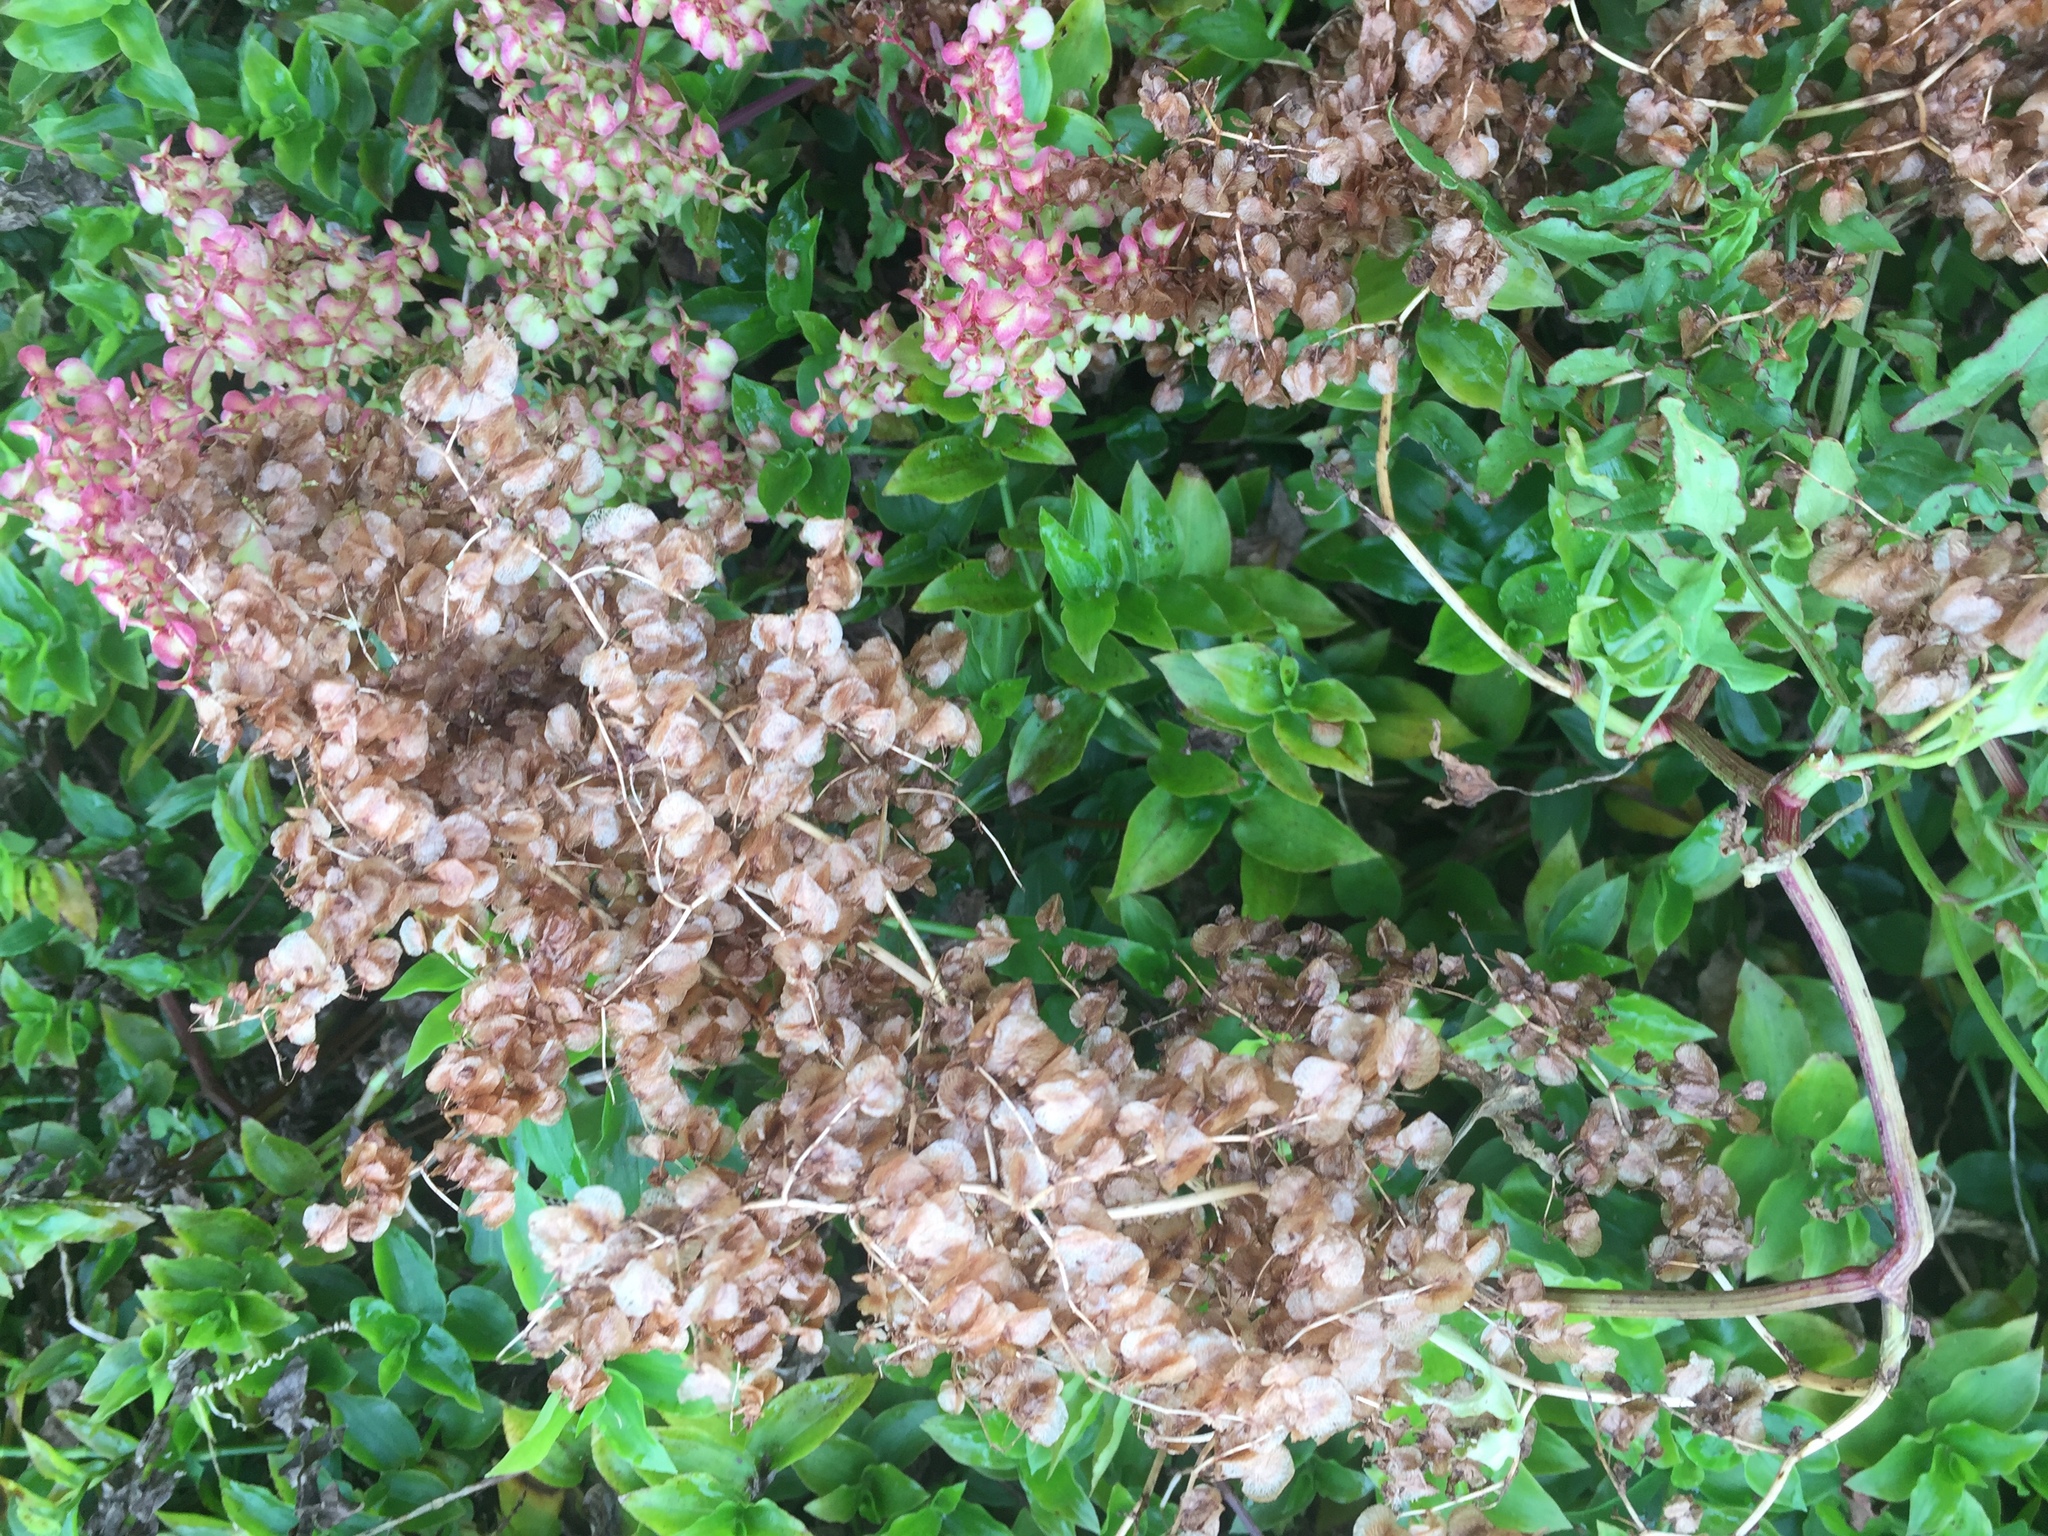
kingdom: Plantae
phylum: Tracheophyta
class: Magnoliopsida
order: Caryophyllales
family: Polygonaceae
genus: Rumex
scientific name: Rumex sagittatus
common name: Climbing dock
